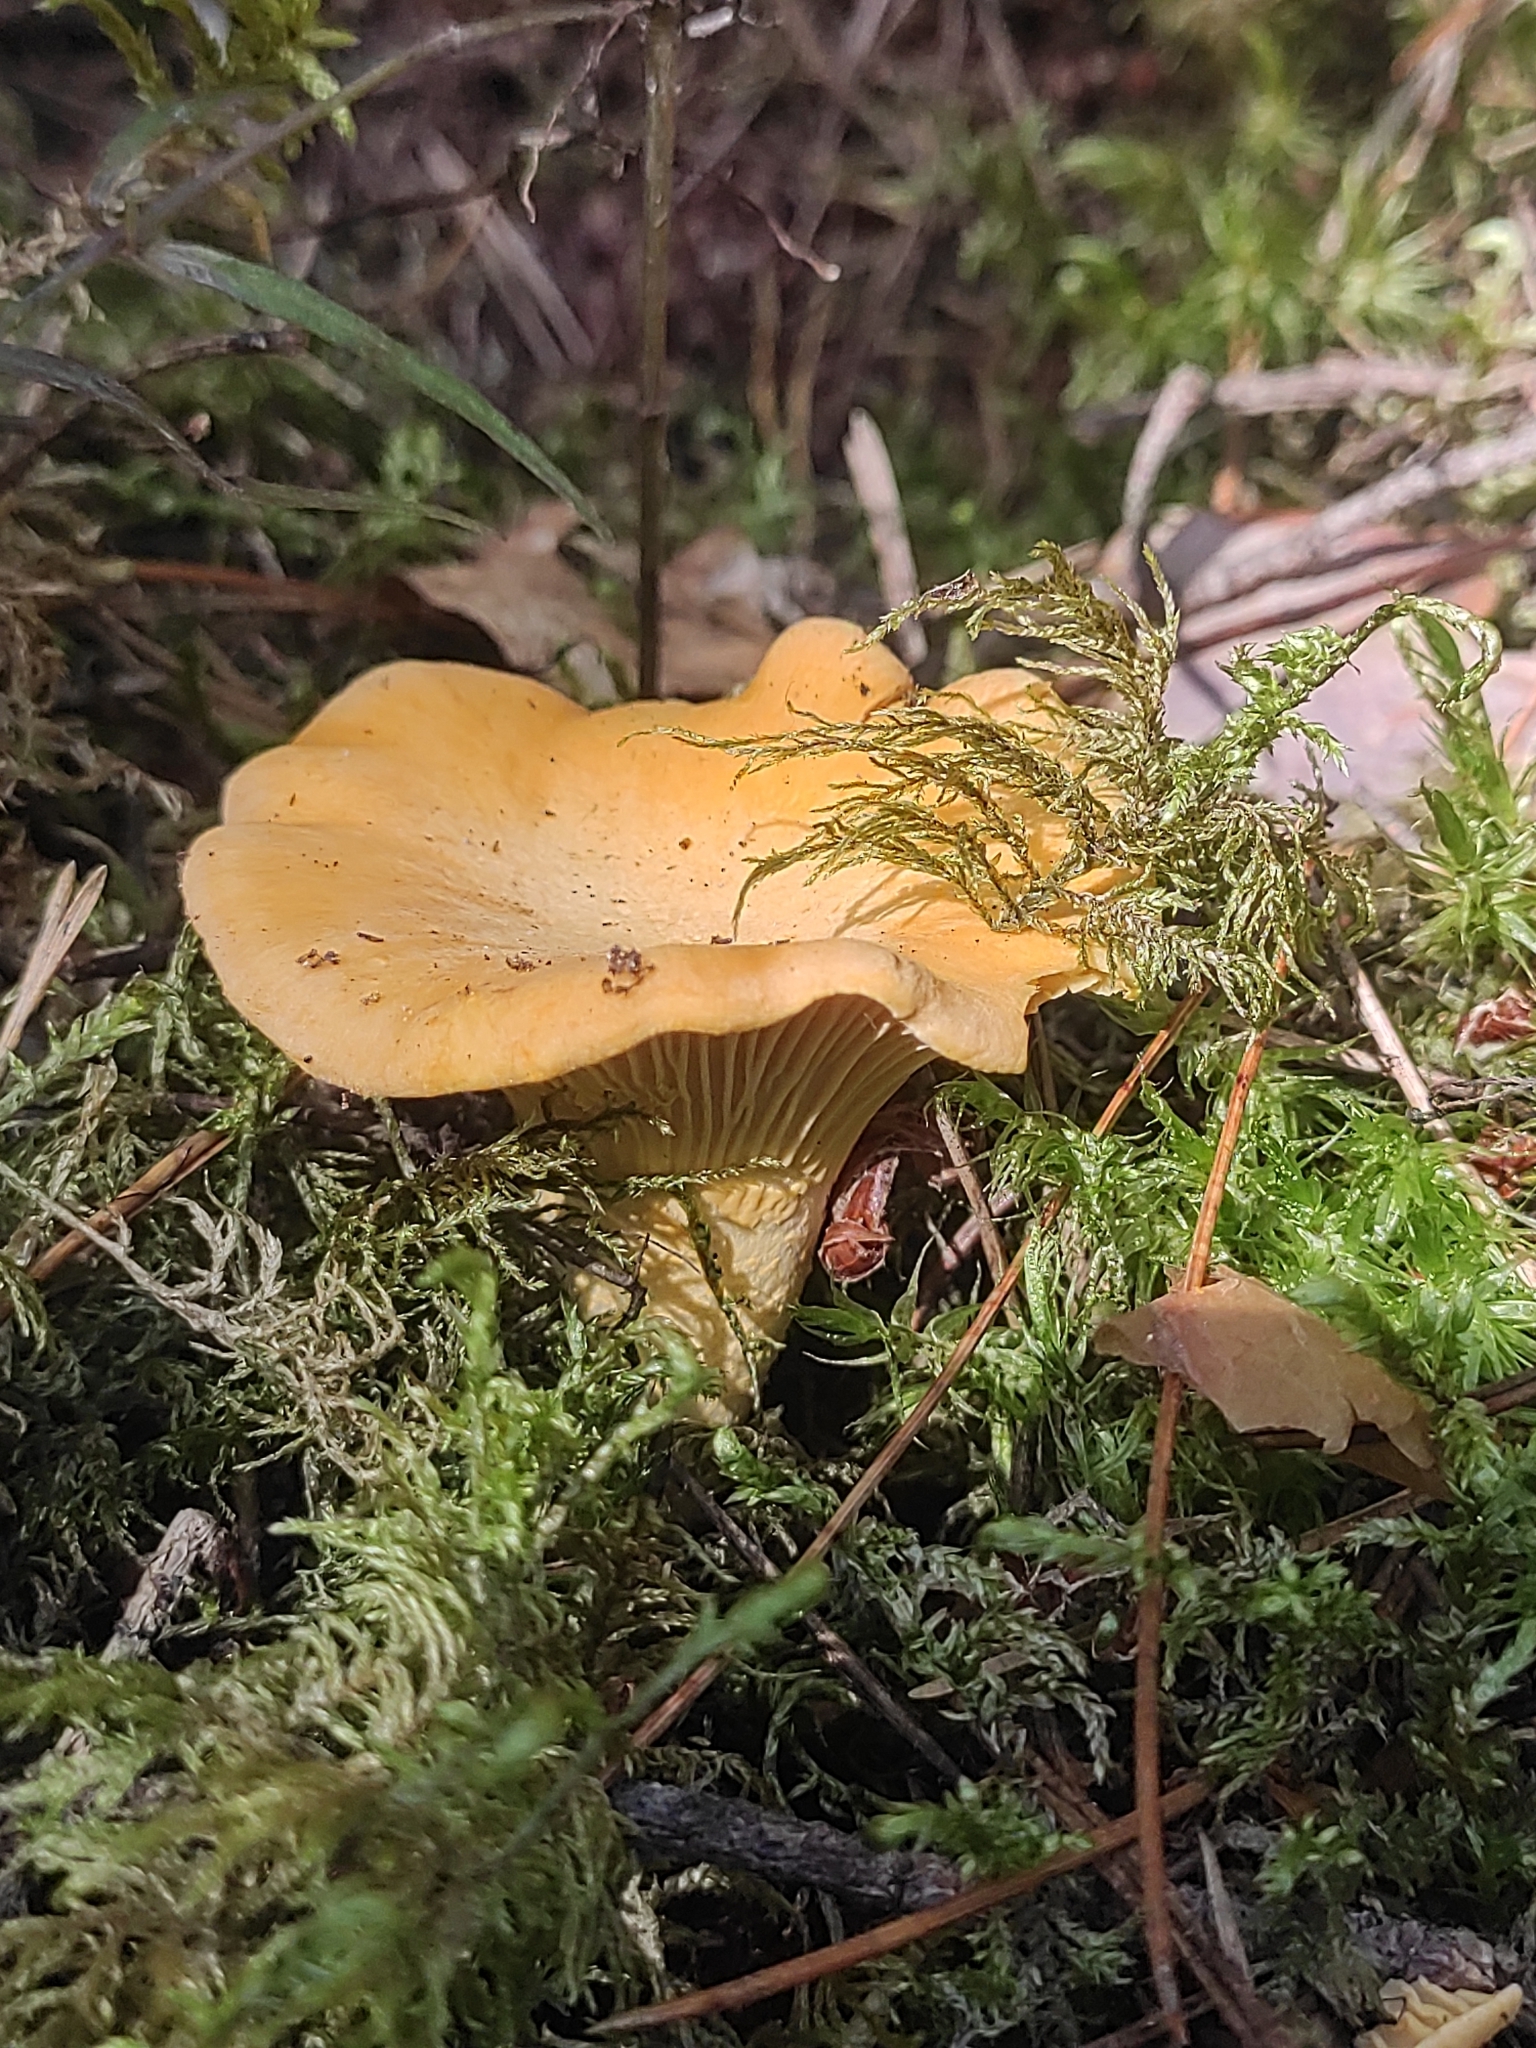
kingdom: Fungi
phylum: Basidiomycota
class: Agaricomycetes
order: Cantharellales
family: Hydnaceae
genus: Cantharellus
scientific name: Cantharellus cibarius
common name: Chanterelle
